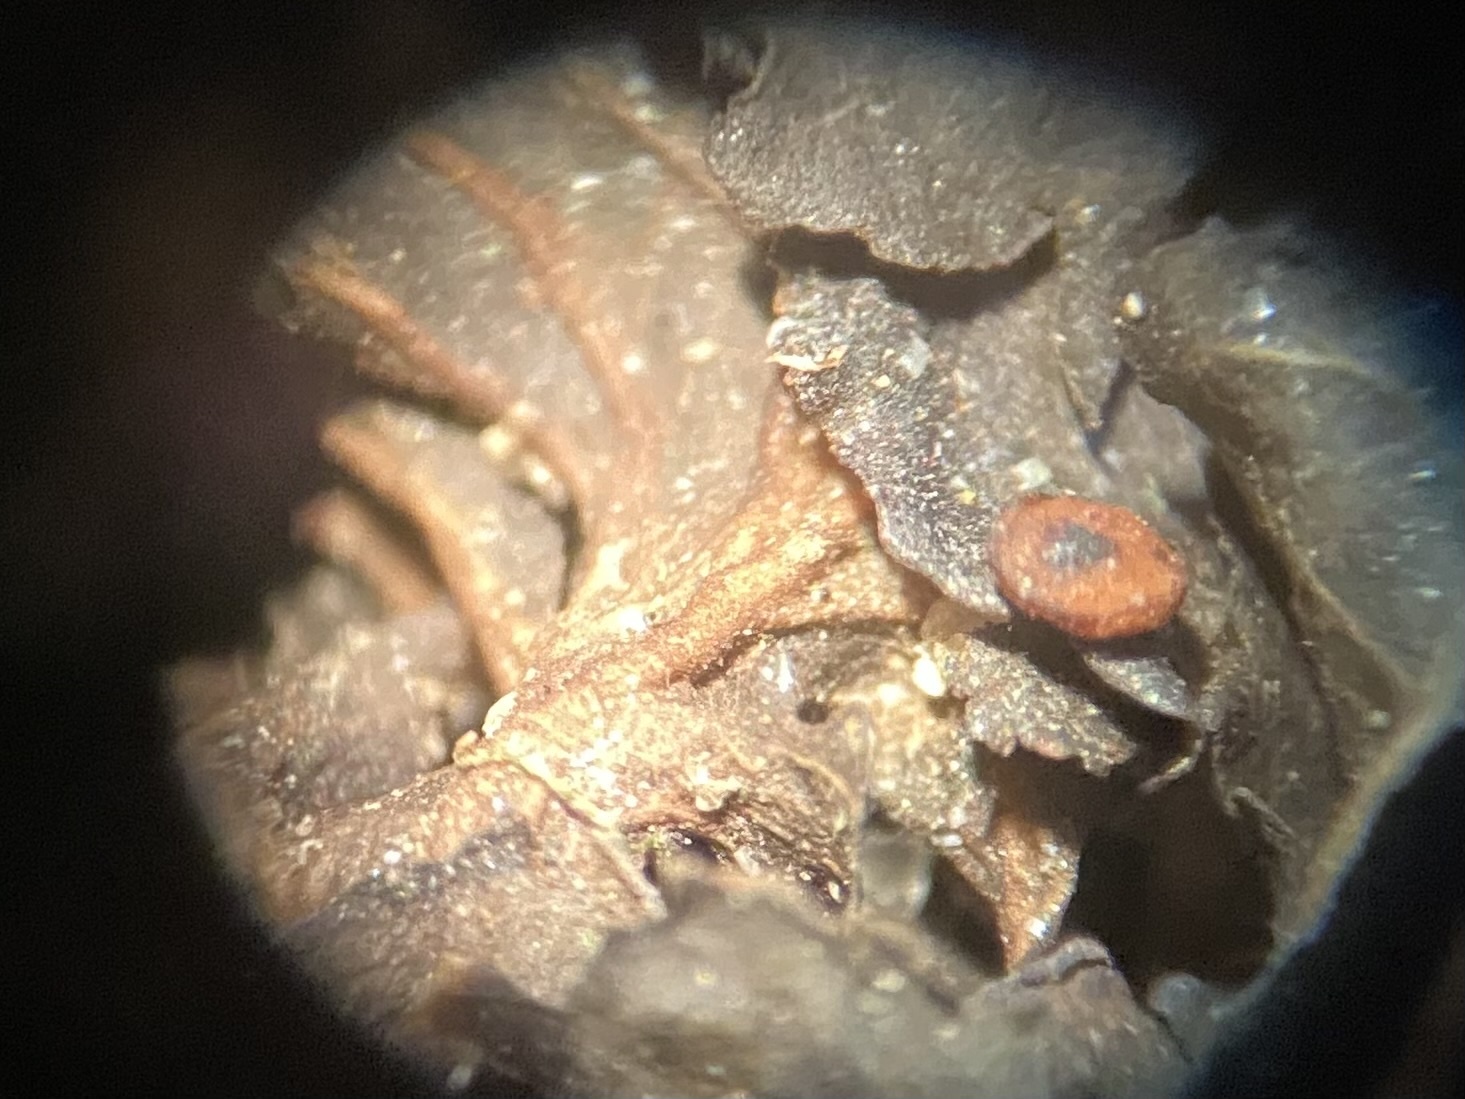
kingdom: Fungi
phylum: Ascomycota
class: Lecanoromycetes
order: Peltigerales
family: Peltigeraceae
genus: Peltigera
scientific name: Peltigera hydrothyria
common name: Aquatic pelt lichen
